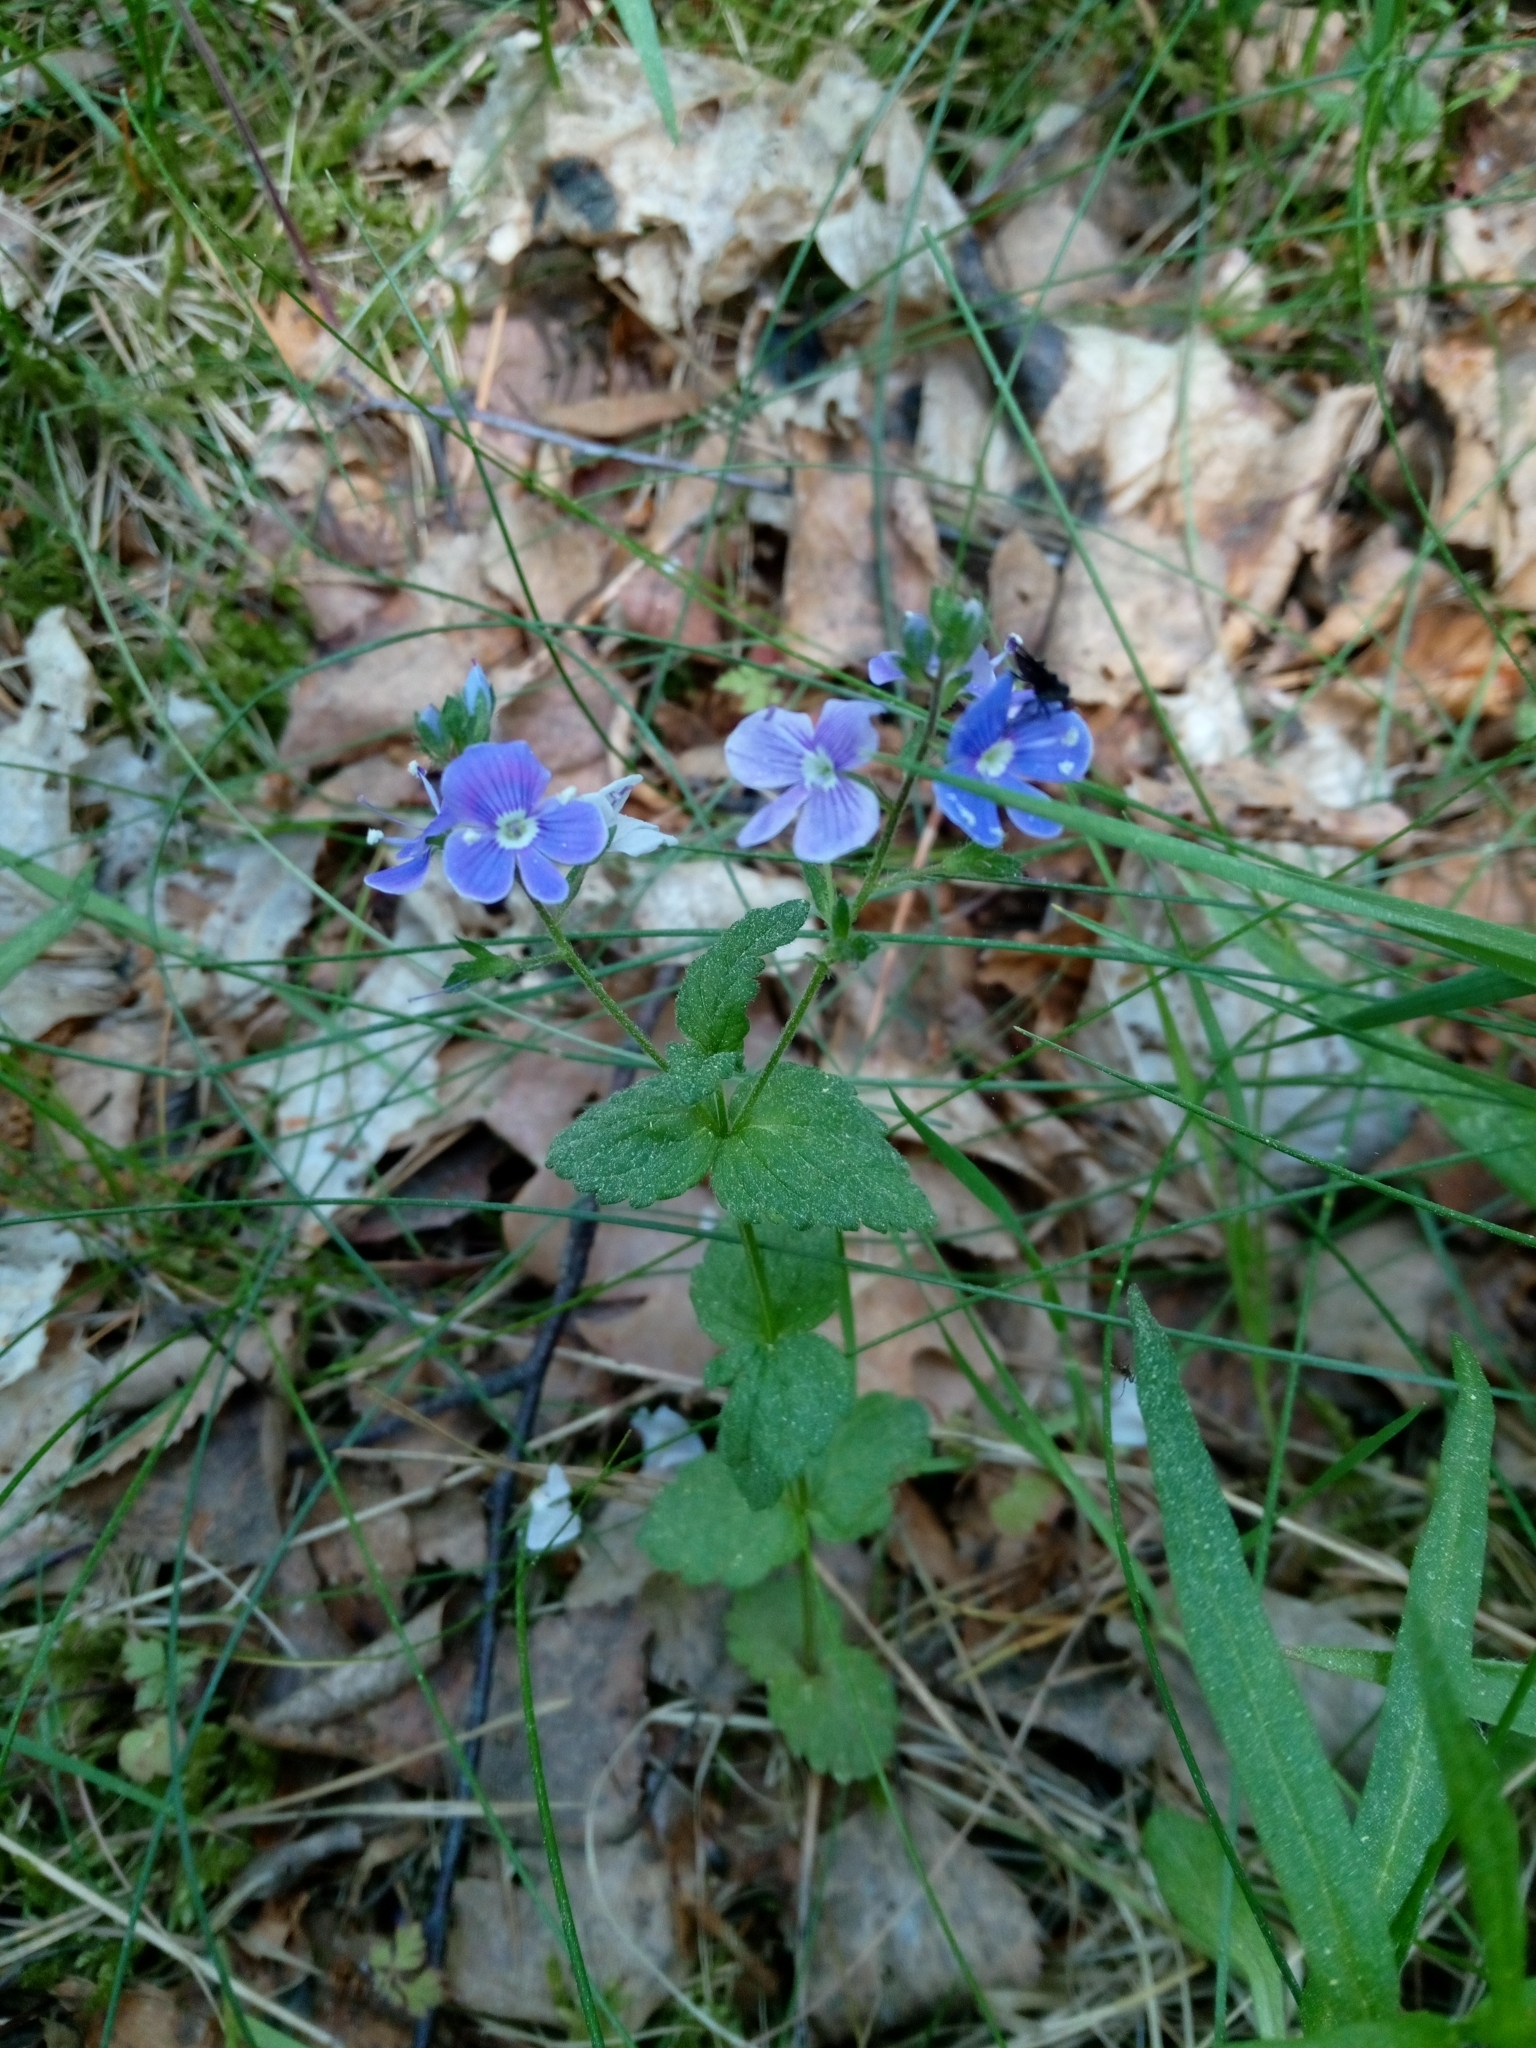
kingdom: Plantae
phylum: Tracheophyta
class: Magnoliopsida
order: Lamiales
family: Plantaginaceae
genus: Veronica
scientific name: Veronica chamaedrys
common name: Germander speedwell
